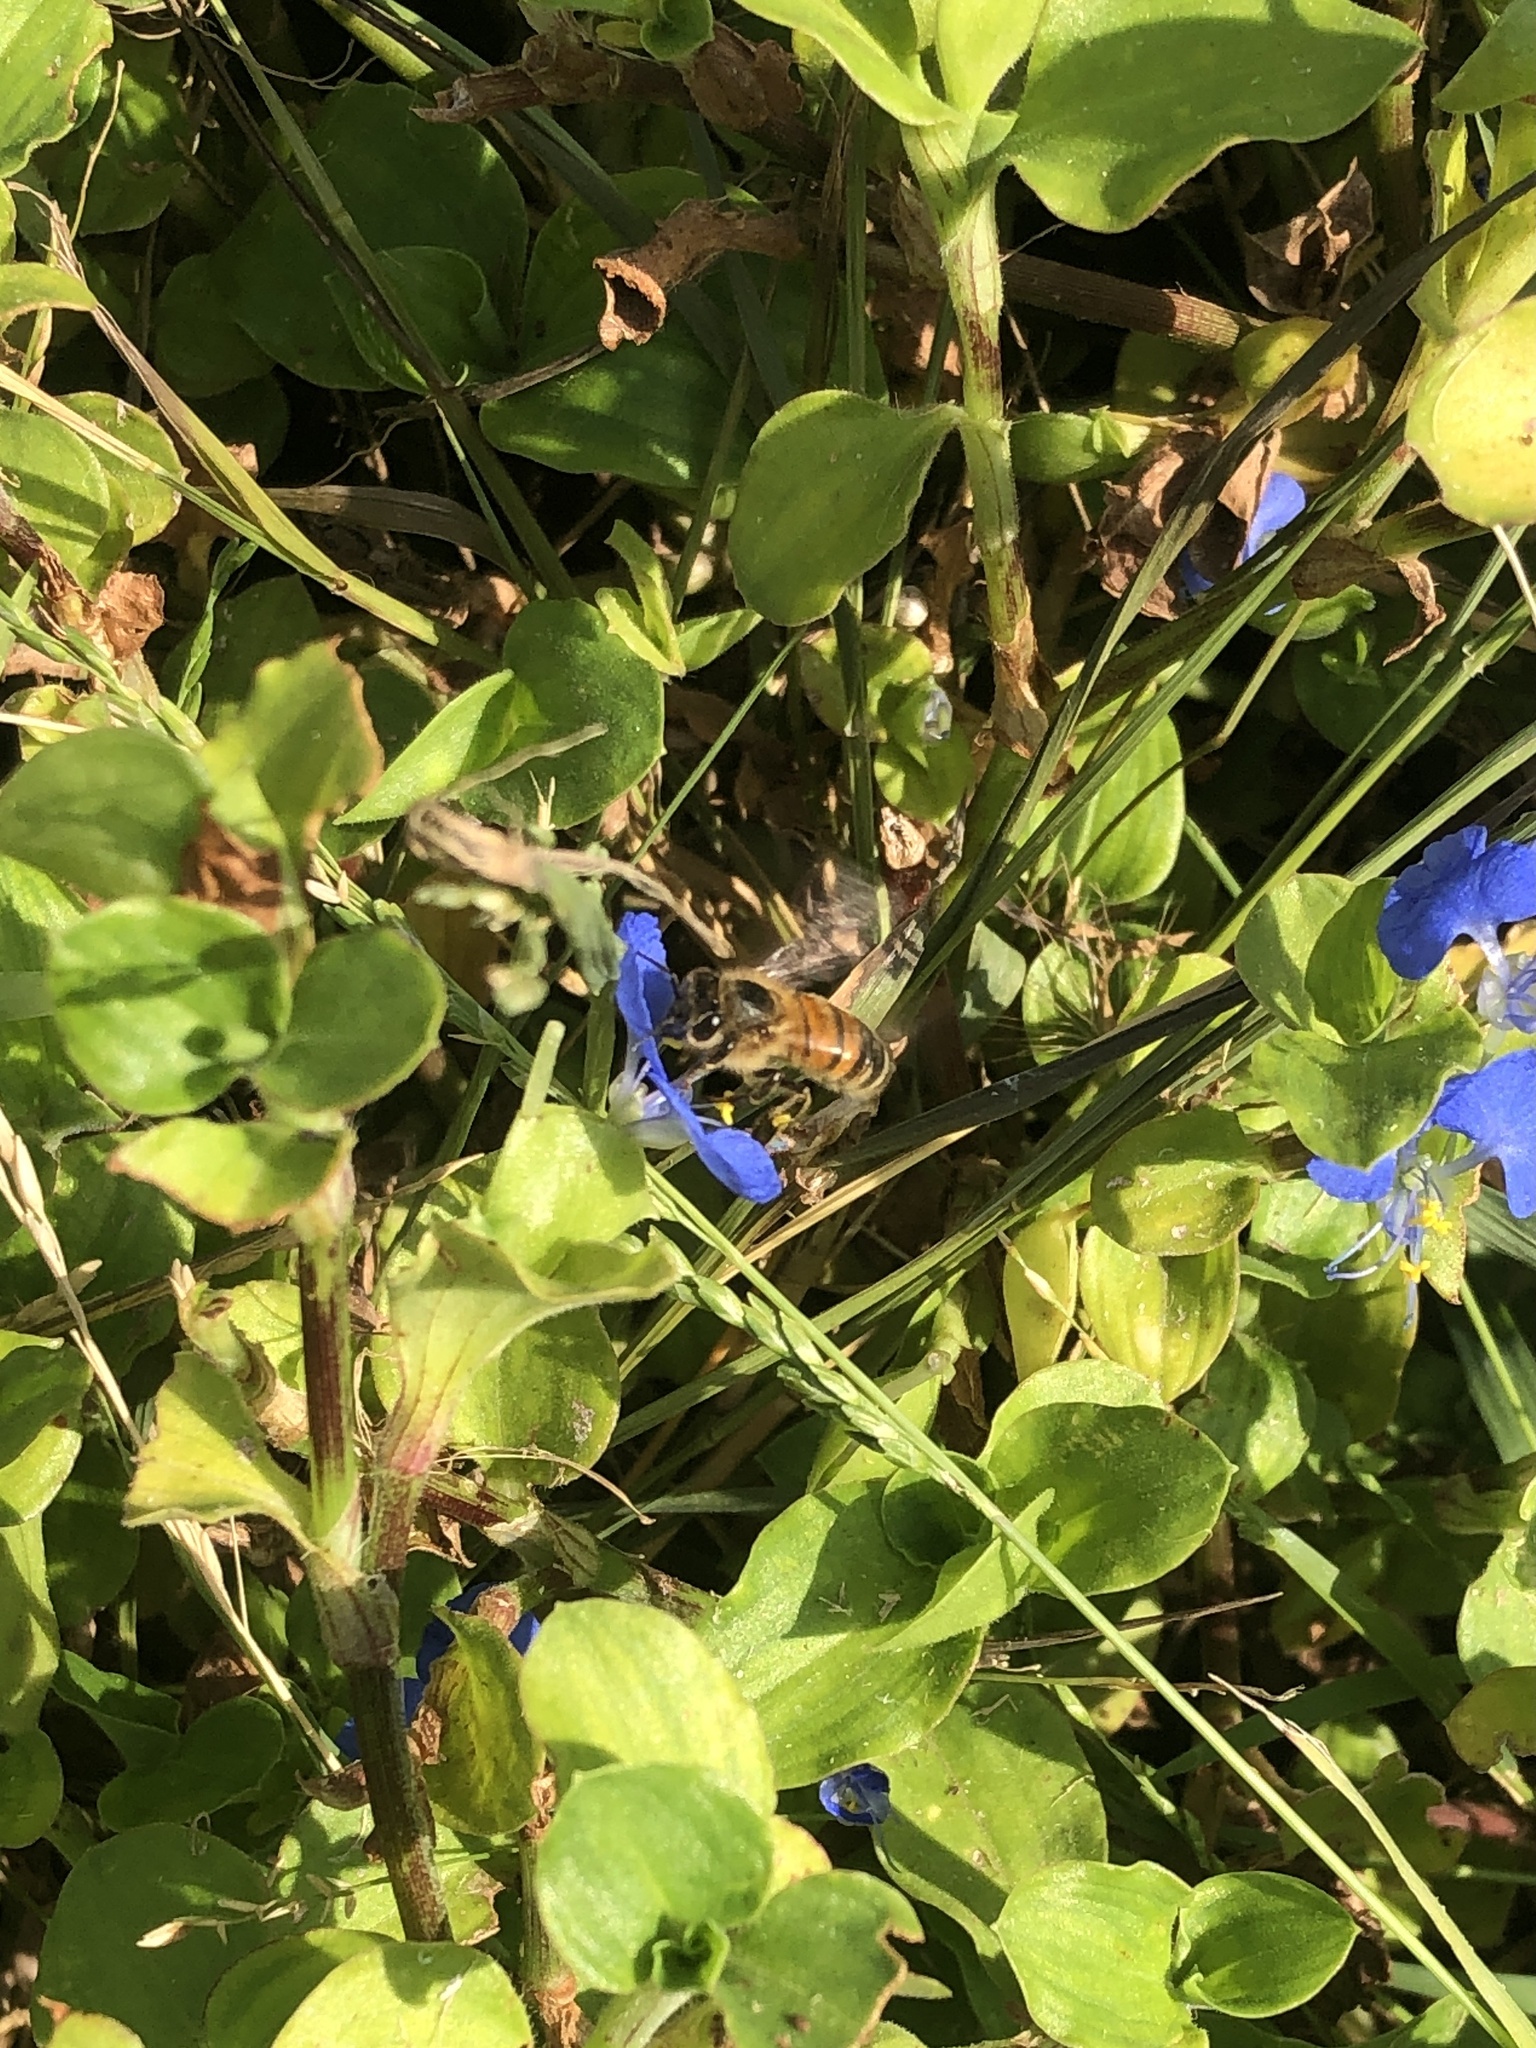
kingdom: Animalia
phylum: Arthropoda
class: Insecta
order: Hymenoptera
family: Apidae
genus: Apis
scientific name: Apis mellifera
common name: Honey bee
